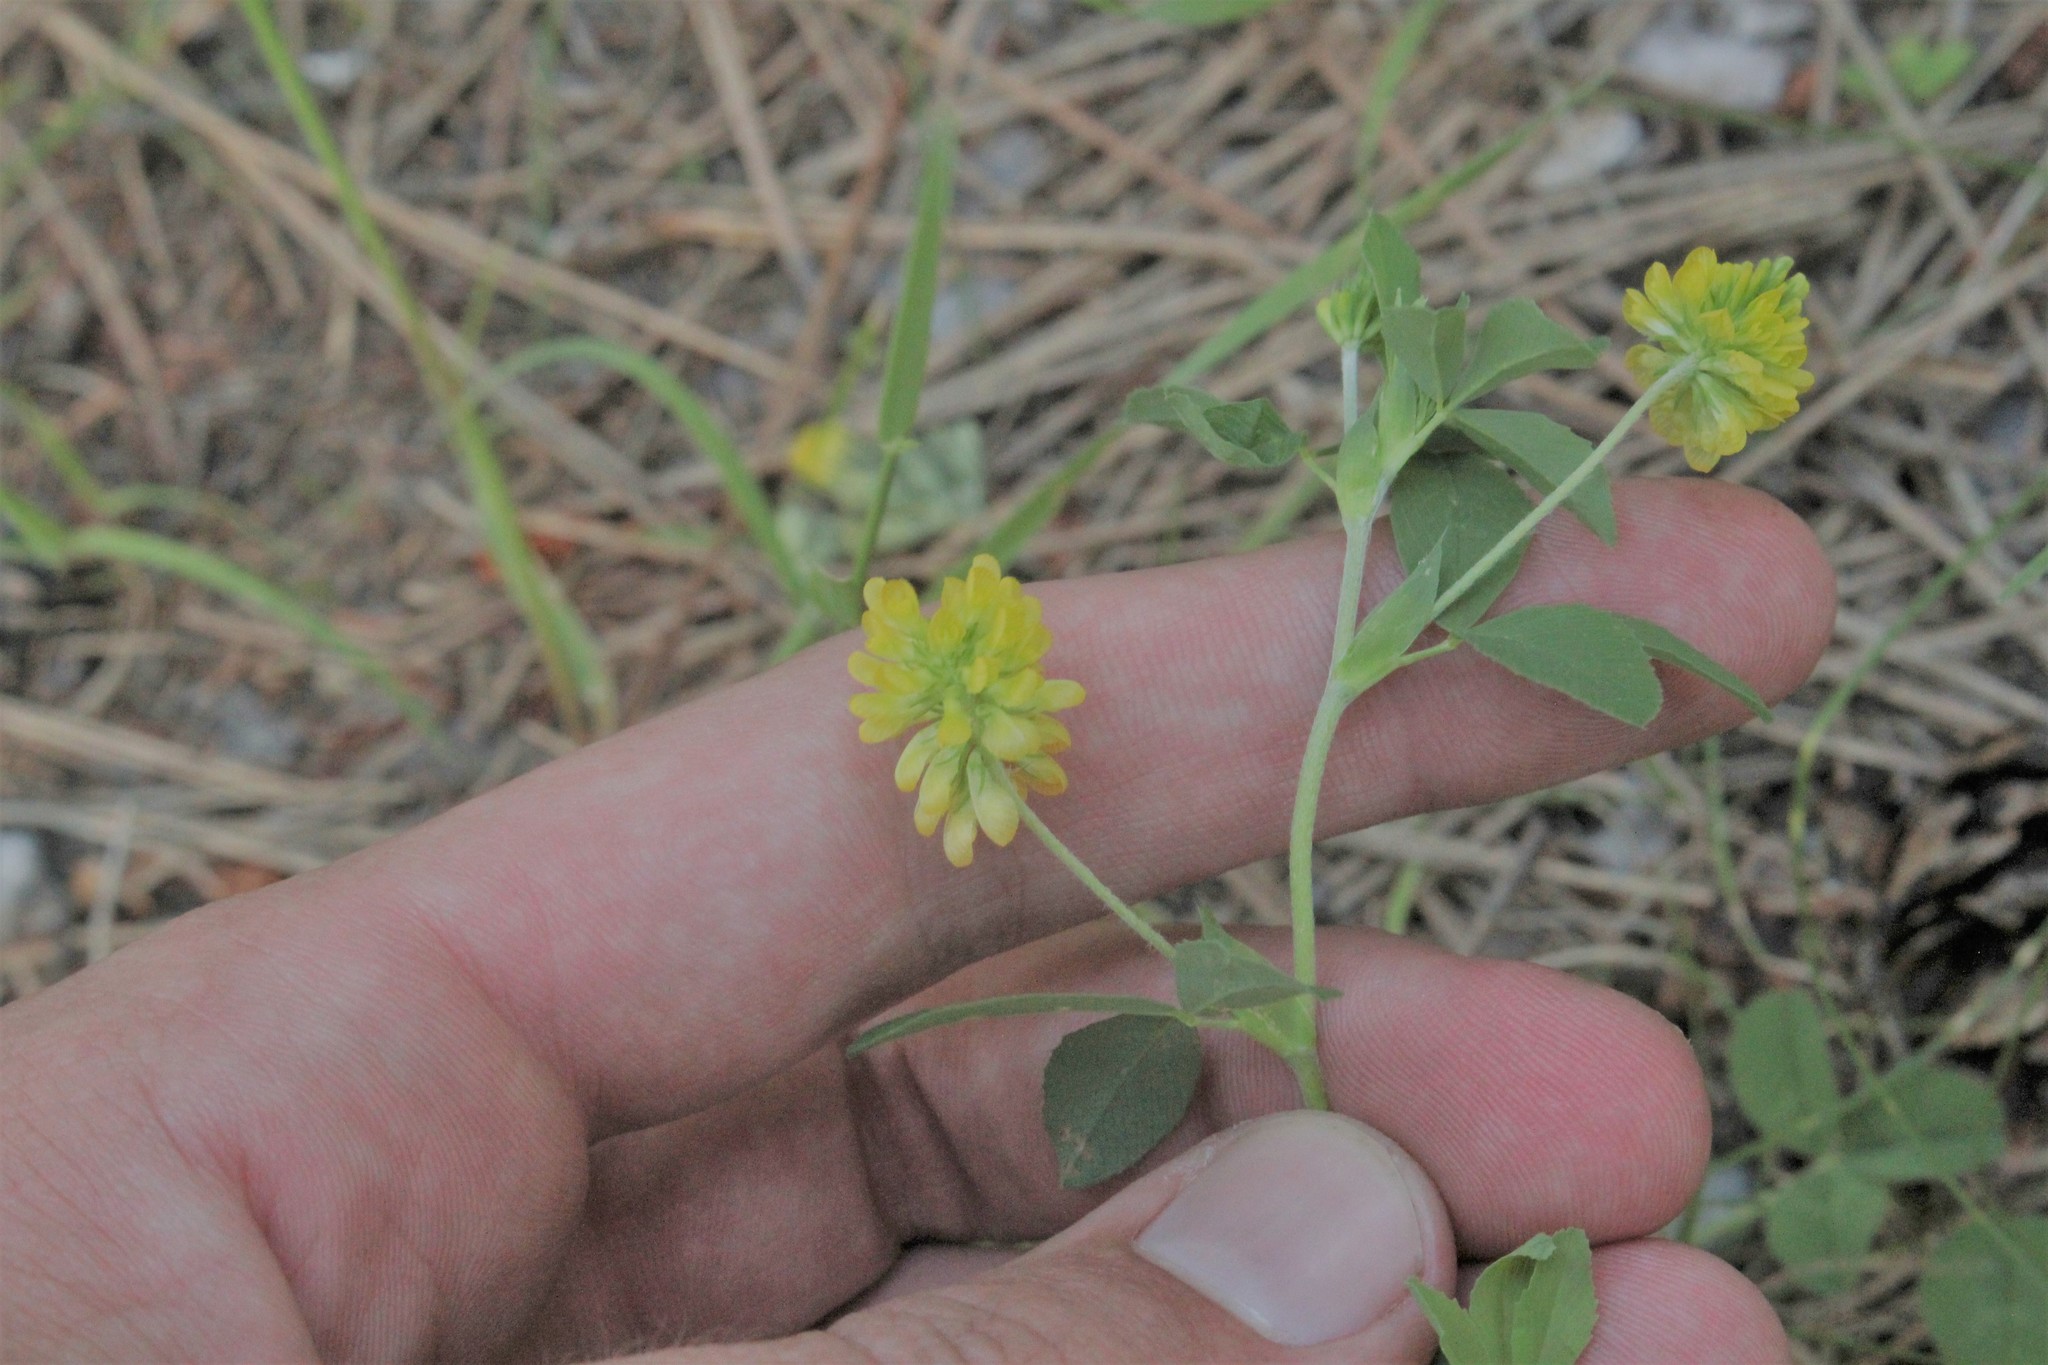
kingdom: Plantae
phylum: Tracheophyta
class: Magnoliopsida
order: Fabales
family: Fabaceae
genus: Trifolium
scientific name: Trifolium aureum
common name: Golden clover
